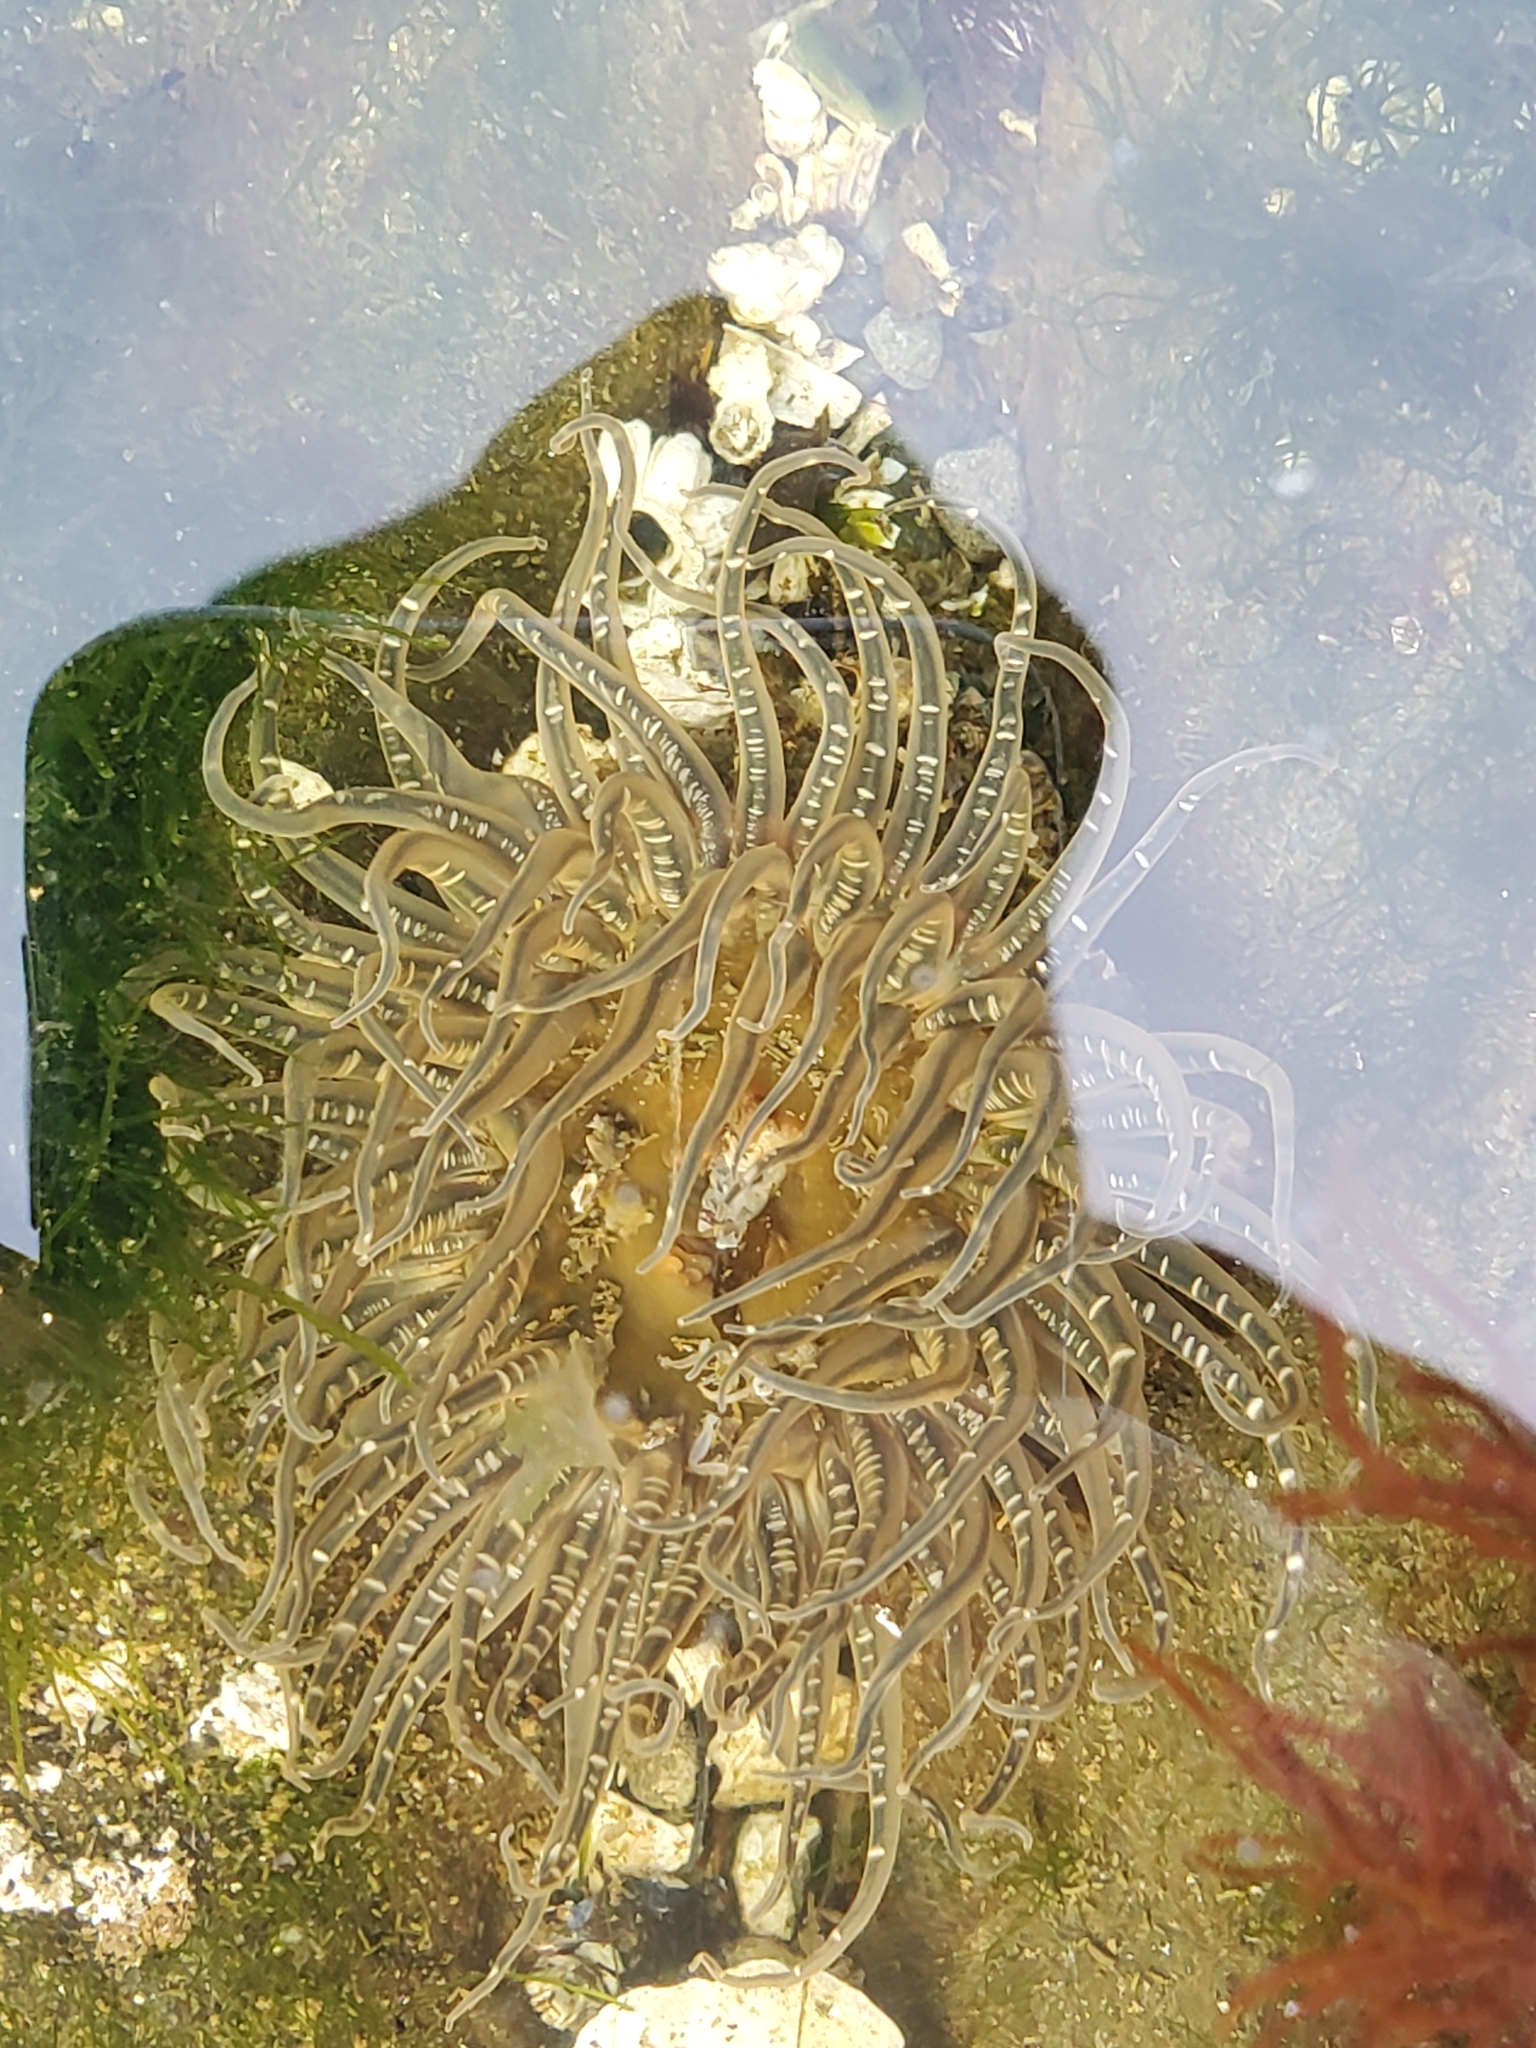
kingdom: Animalia
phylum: Cnidaria
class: Anthozoa
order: Actiniaria
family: Actiniidae
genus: Anthopleura
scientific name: Anthopleura artemisia
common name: Buried sea anemone
